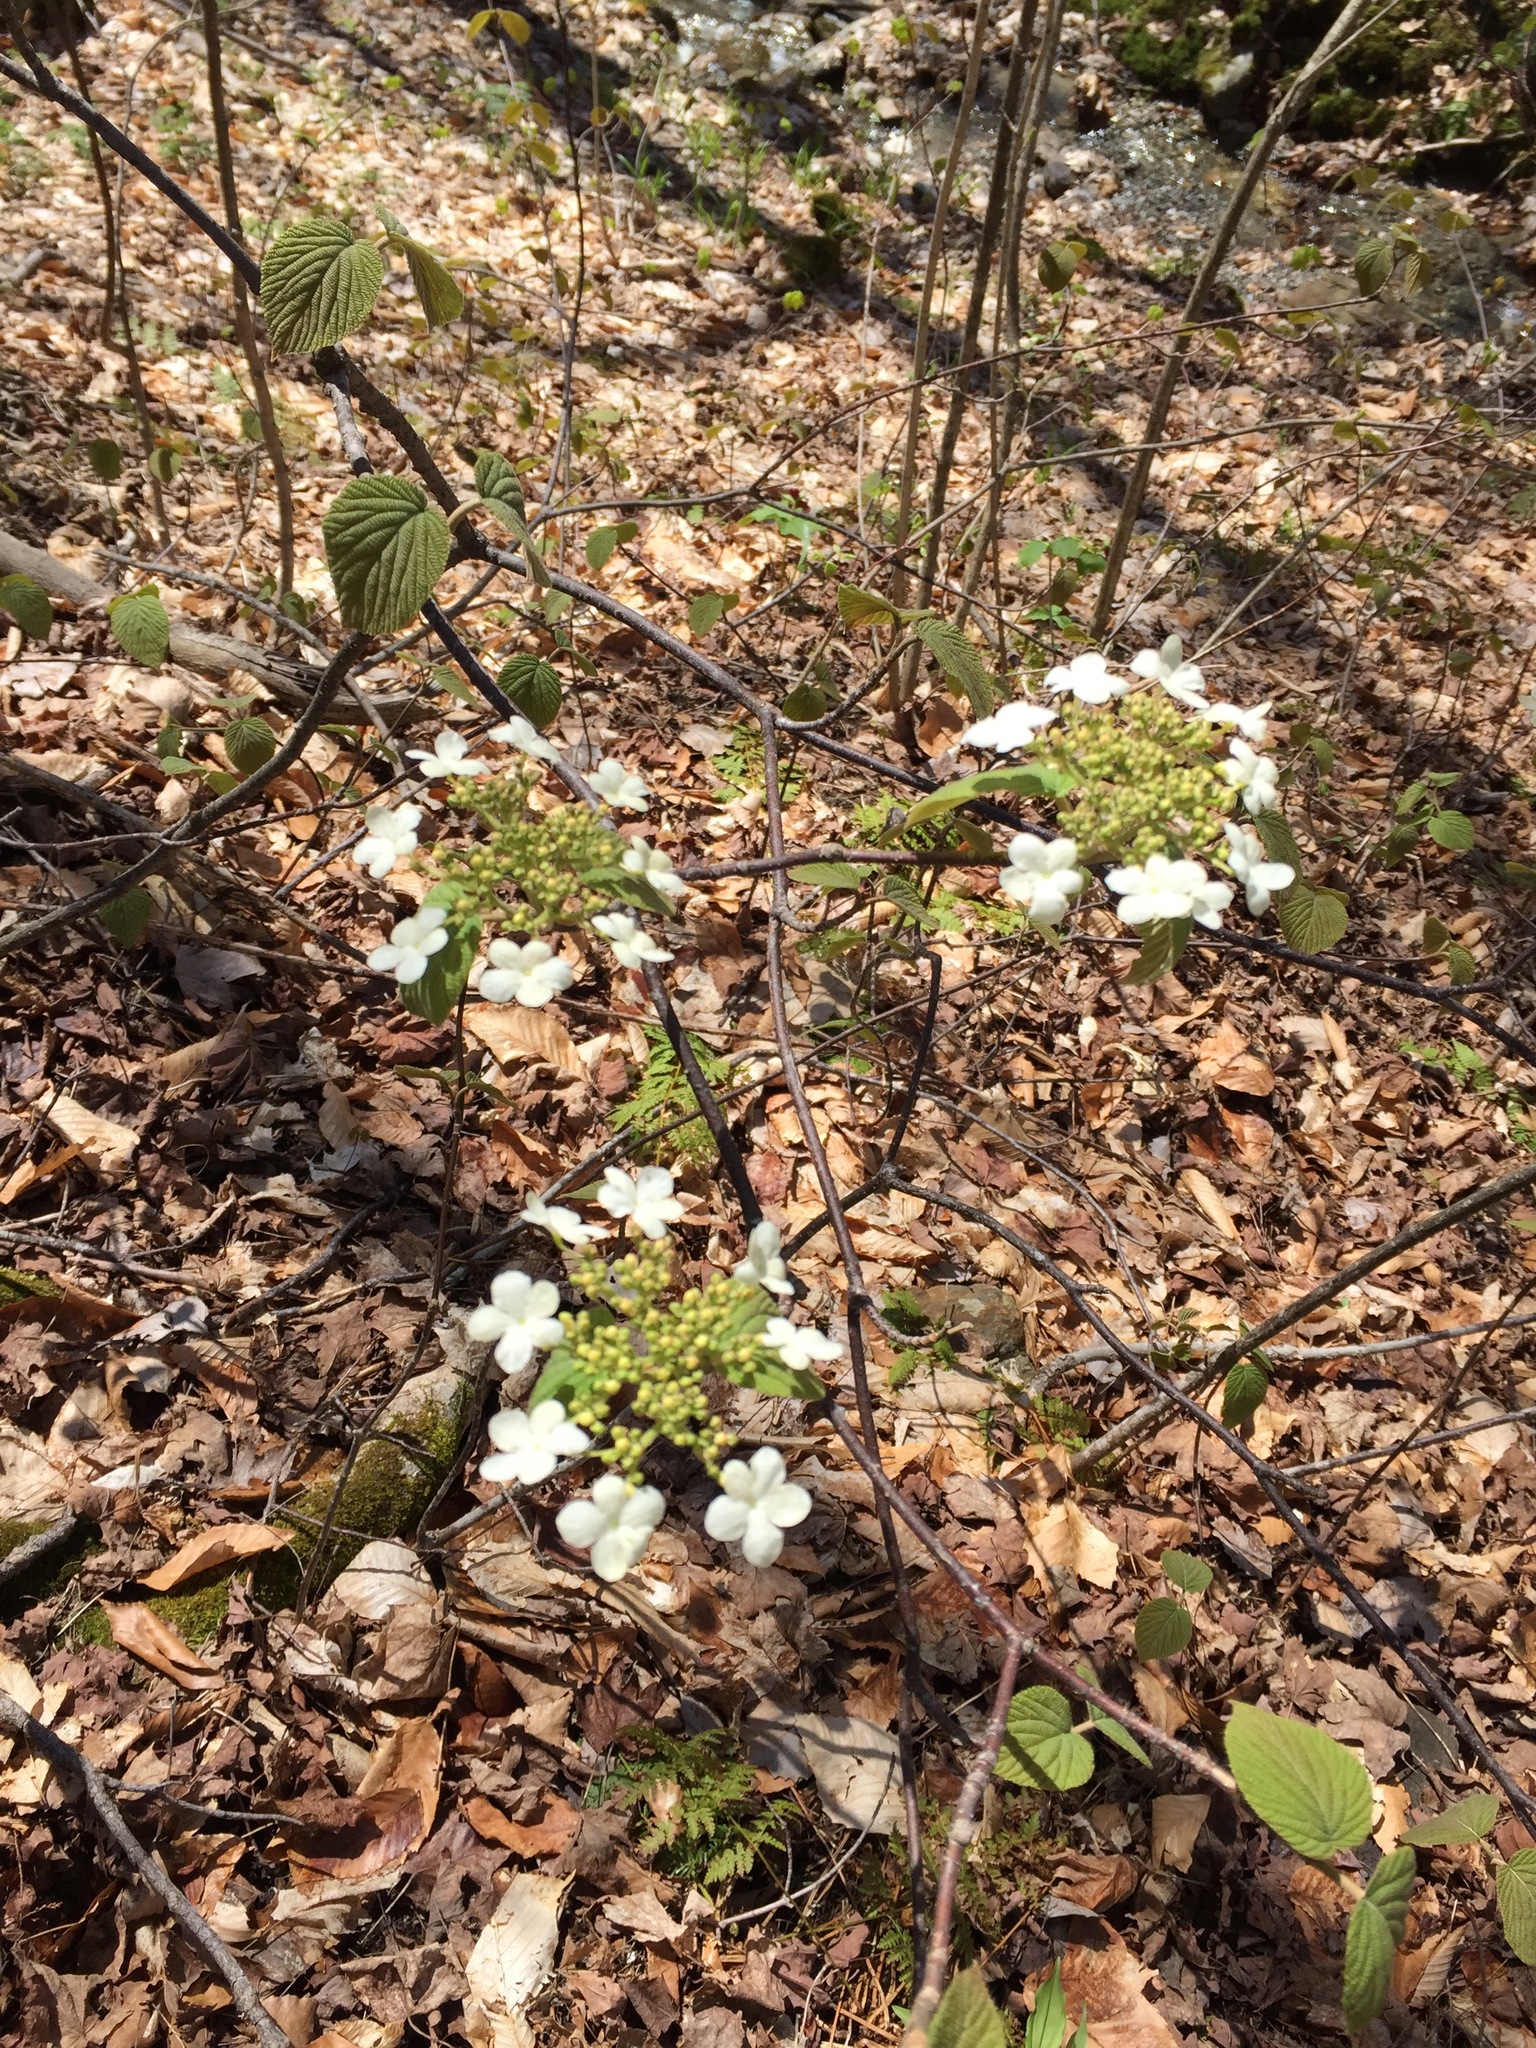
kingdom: Plantae
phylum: Tracheophyta
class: Magnoliopsida
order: Dipsacales
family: Viburnaceae
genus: Viburnum
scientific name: Viburnum lantanoides
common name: Hobblebush
